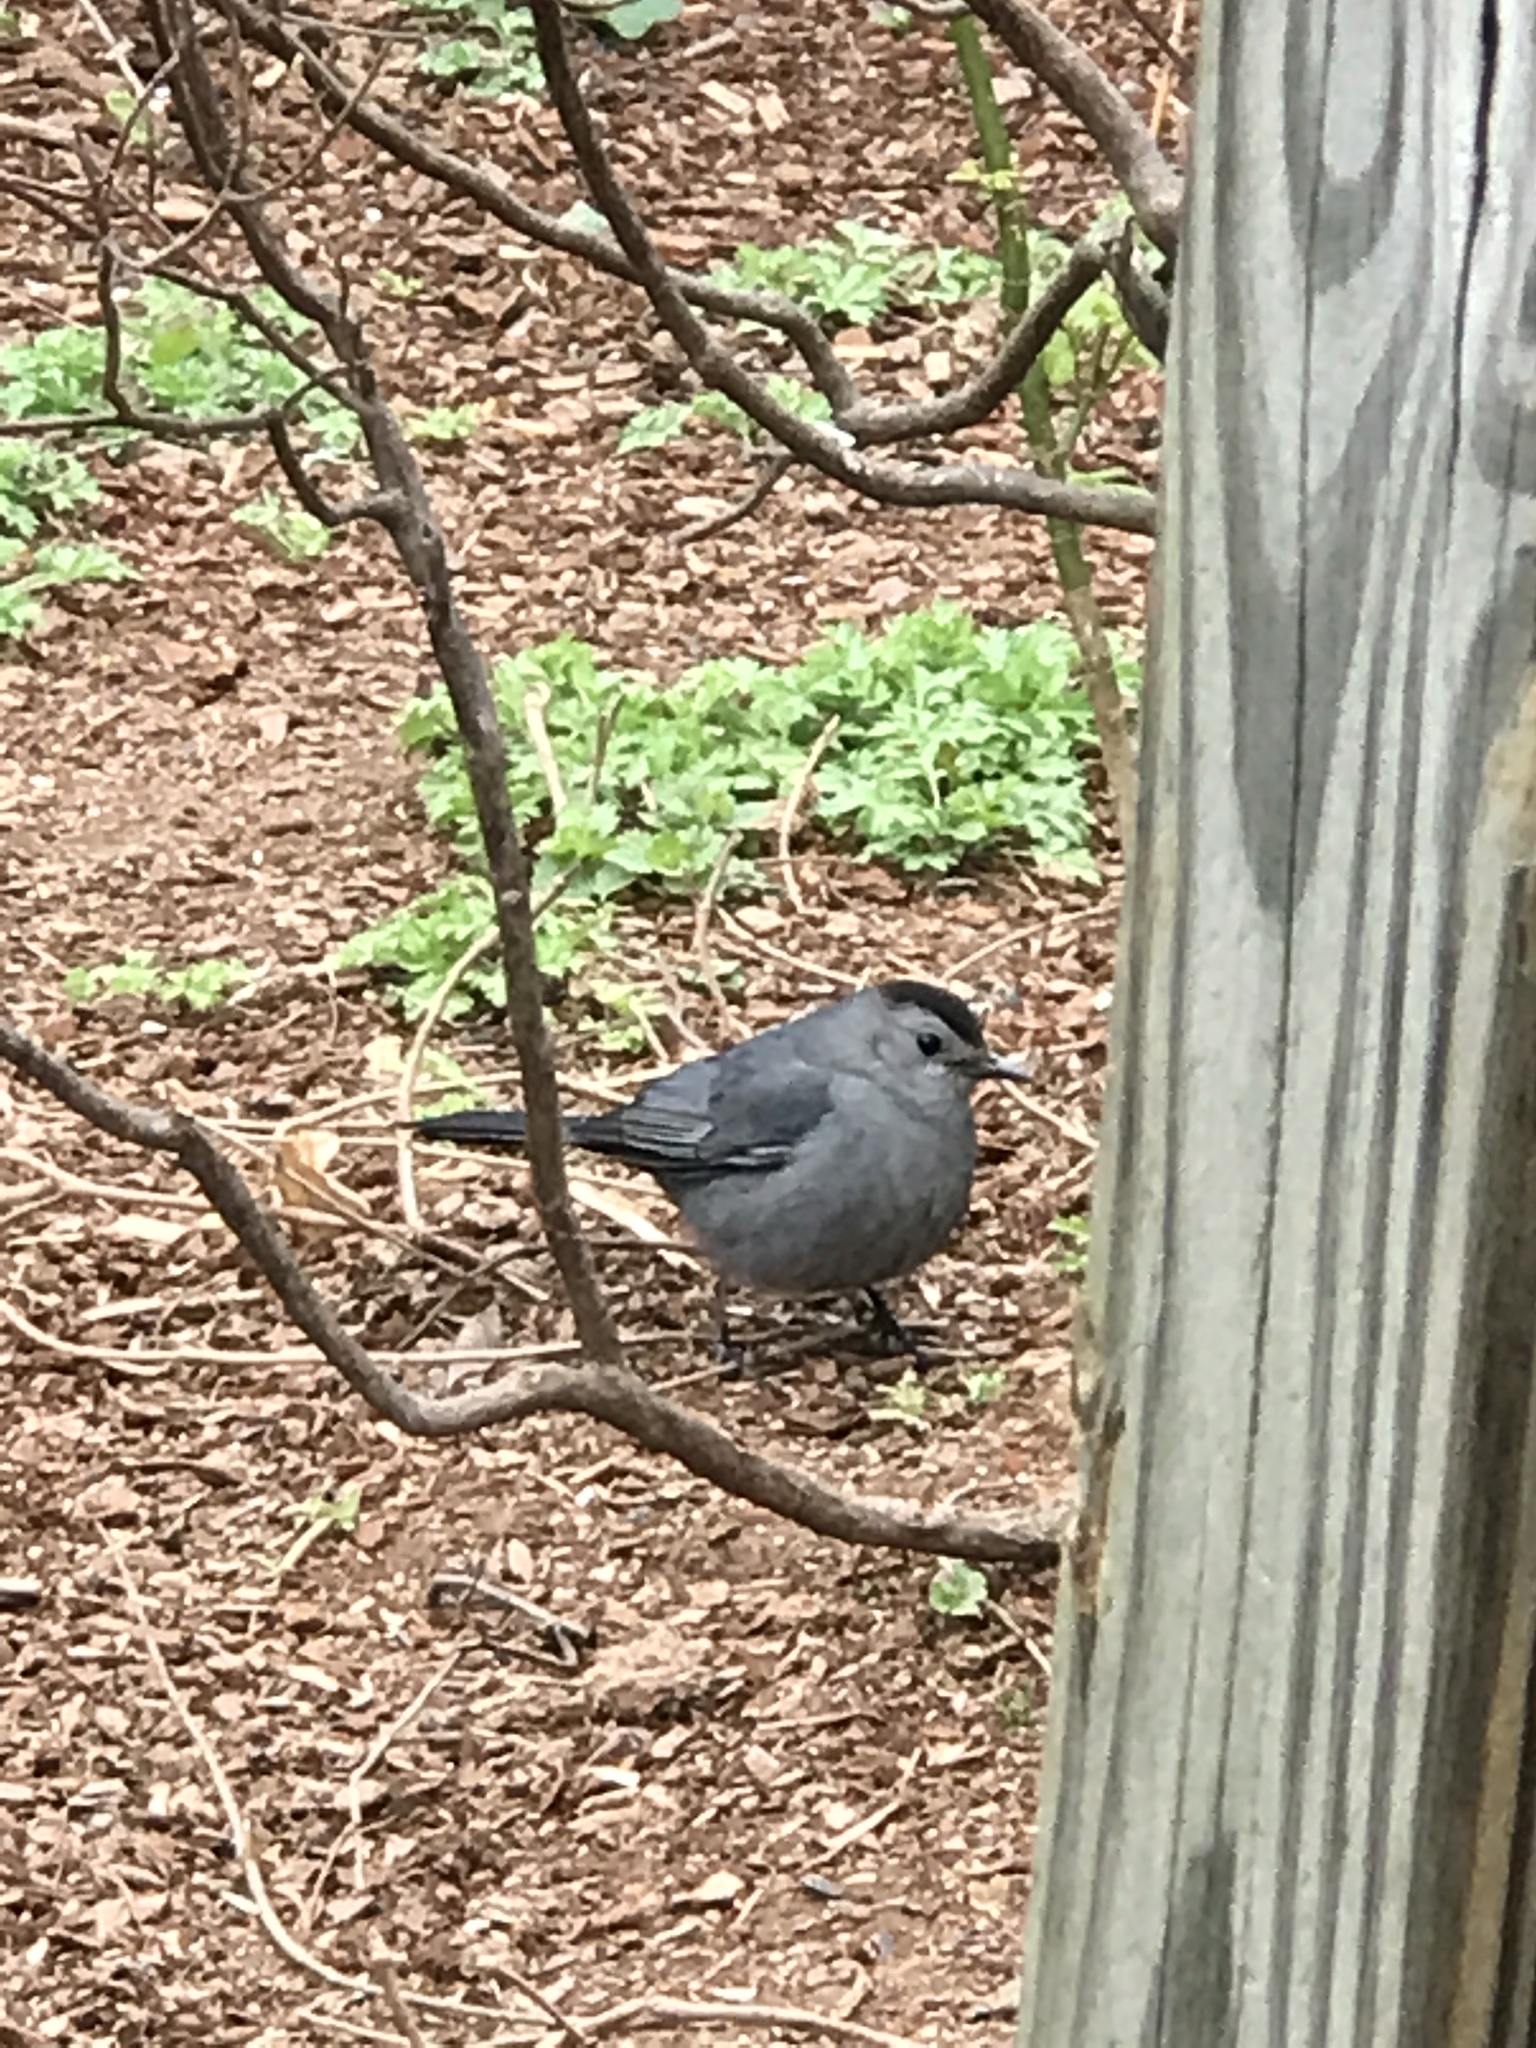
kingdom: Animalia
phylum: Chordata
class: Aves
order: Passeriformes
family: Mimidae
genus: Dumetella
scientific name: Dumetella carolinensis
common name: Gray catbird
